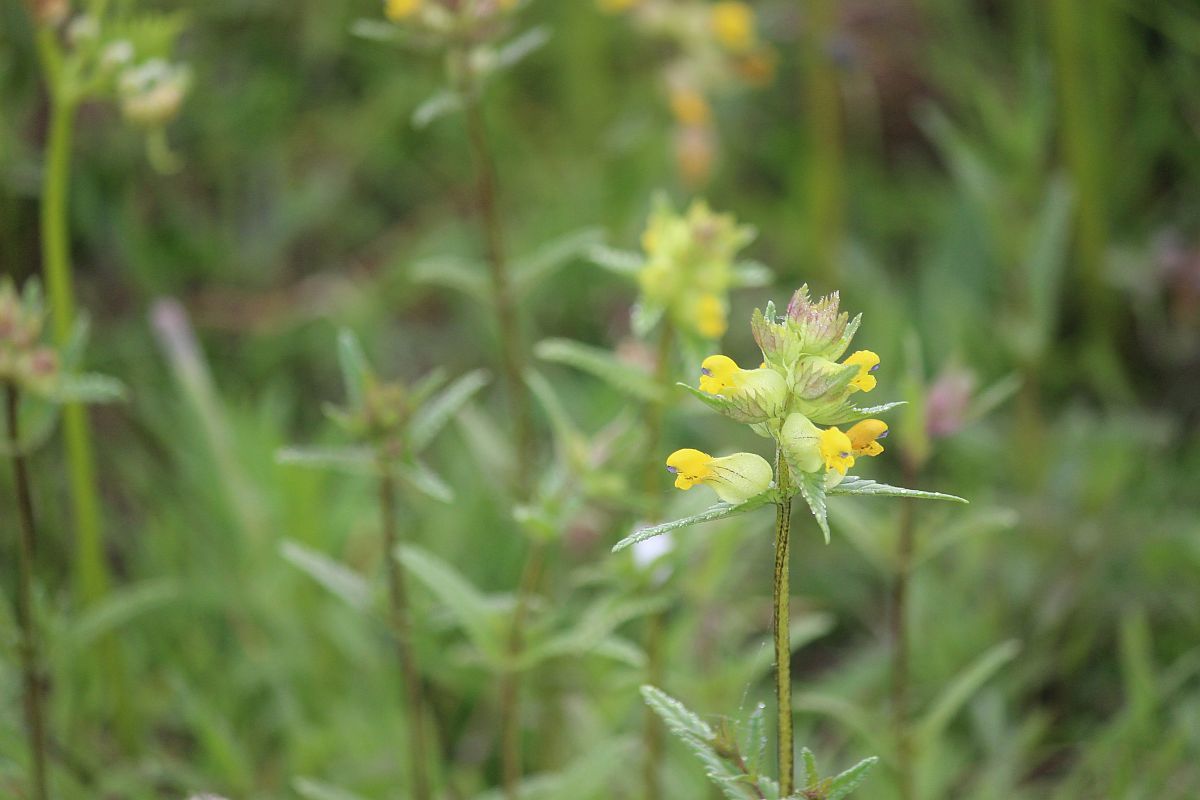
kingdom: Plantae
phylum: Tracheophyta
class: Magnoliopsida
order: Lamiales
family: Orobanchaceae
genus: Rhinanthus
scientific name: Rhinanthus minor
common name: Yellow-rattle
